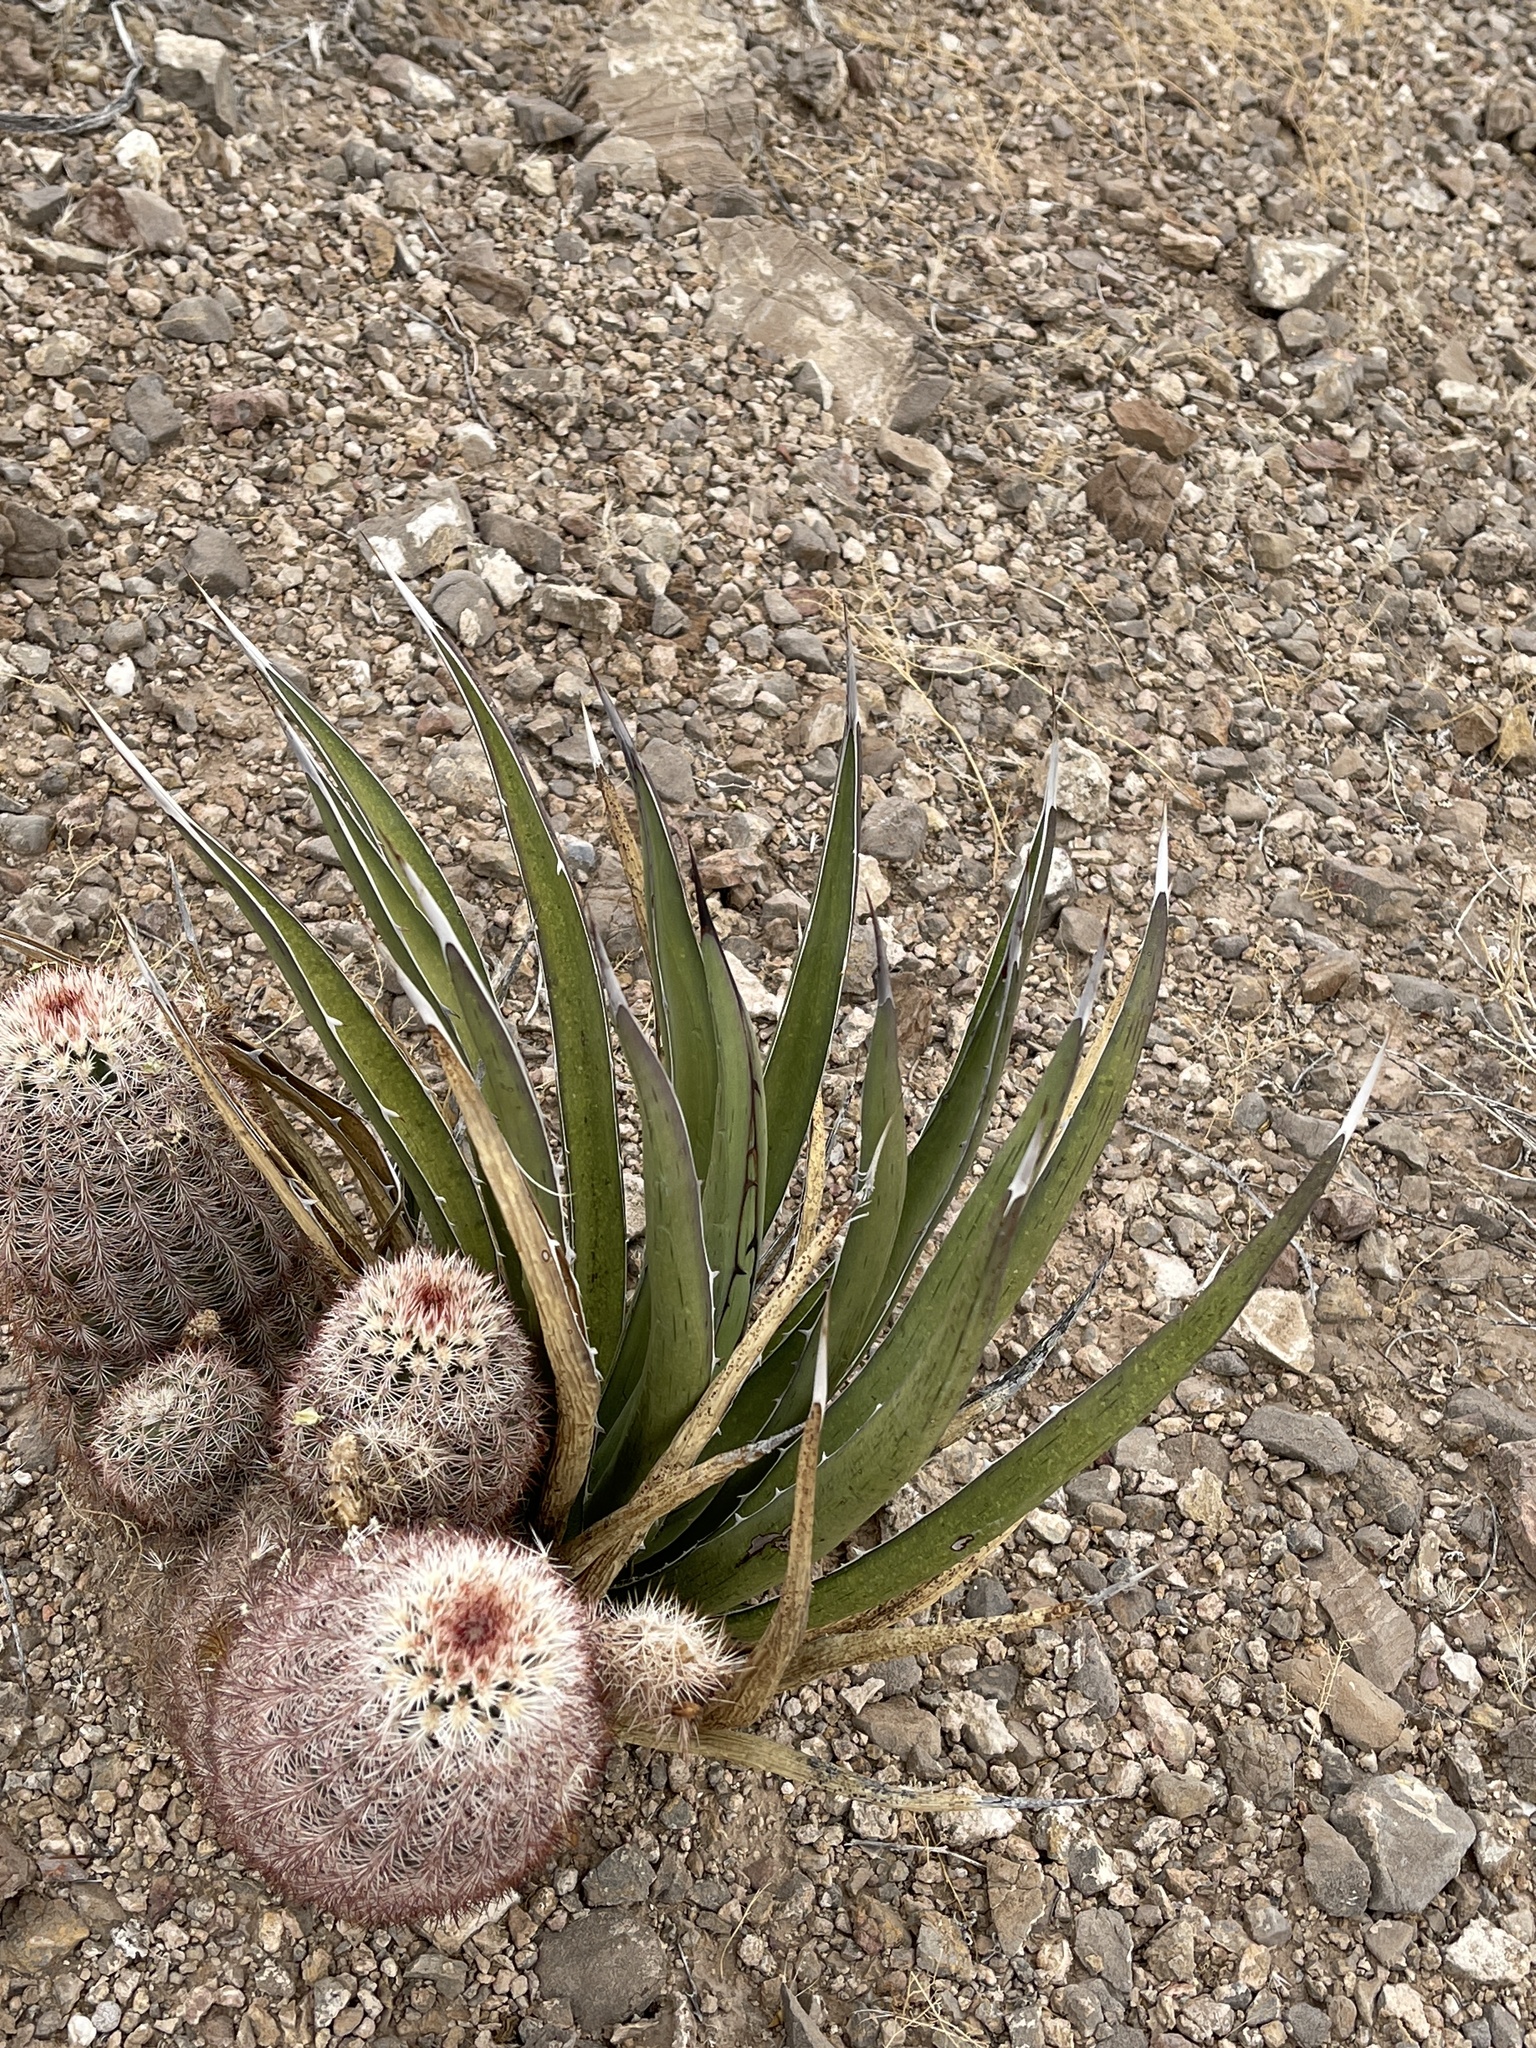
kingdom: Plantae
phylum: Tracheophyta
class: Liliopsida
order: Asparagales
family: Asparagaceae
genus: Agave
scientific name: Agave lechuguilla
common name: Lecheguilla agave
